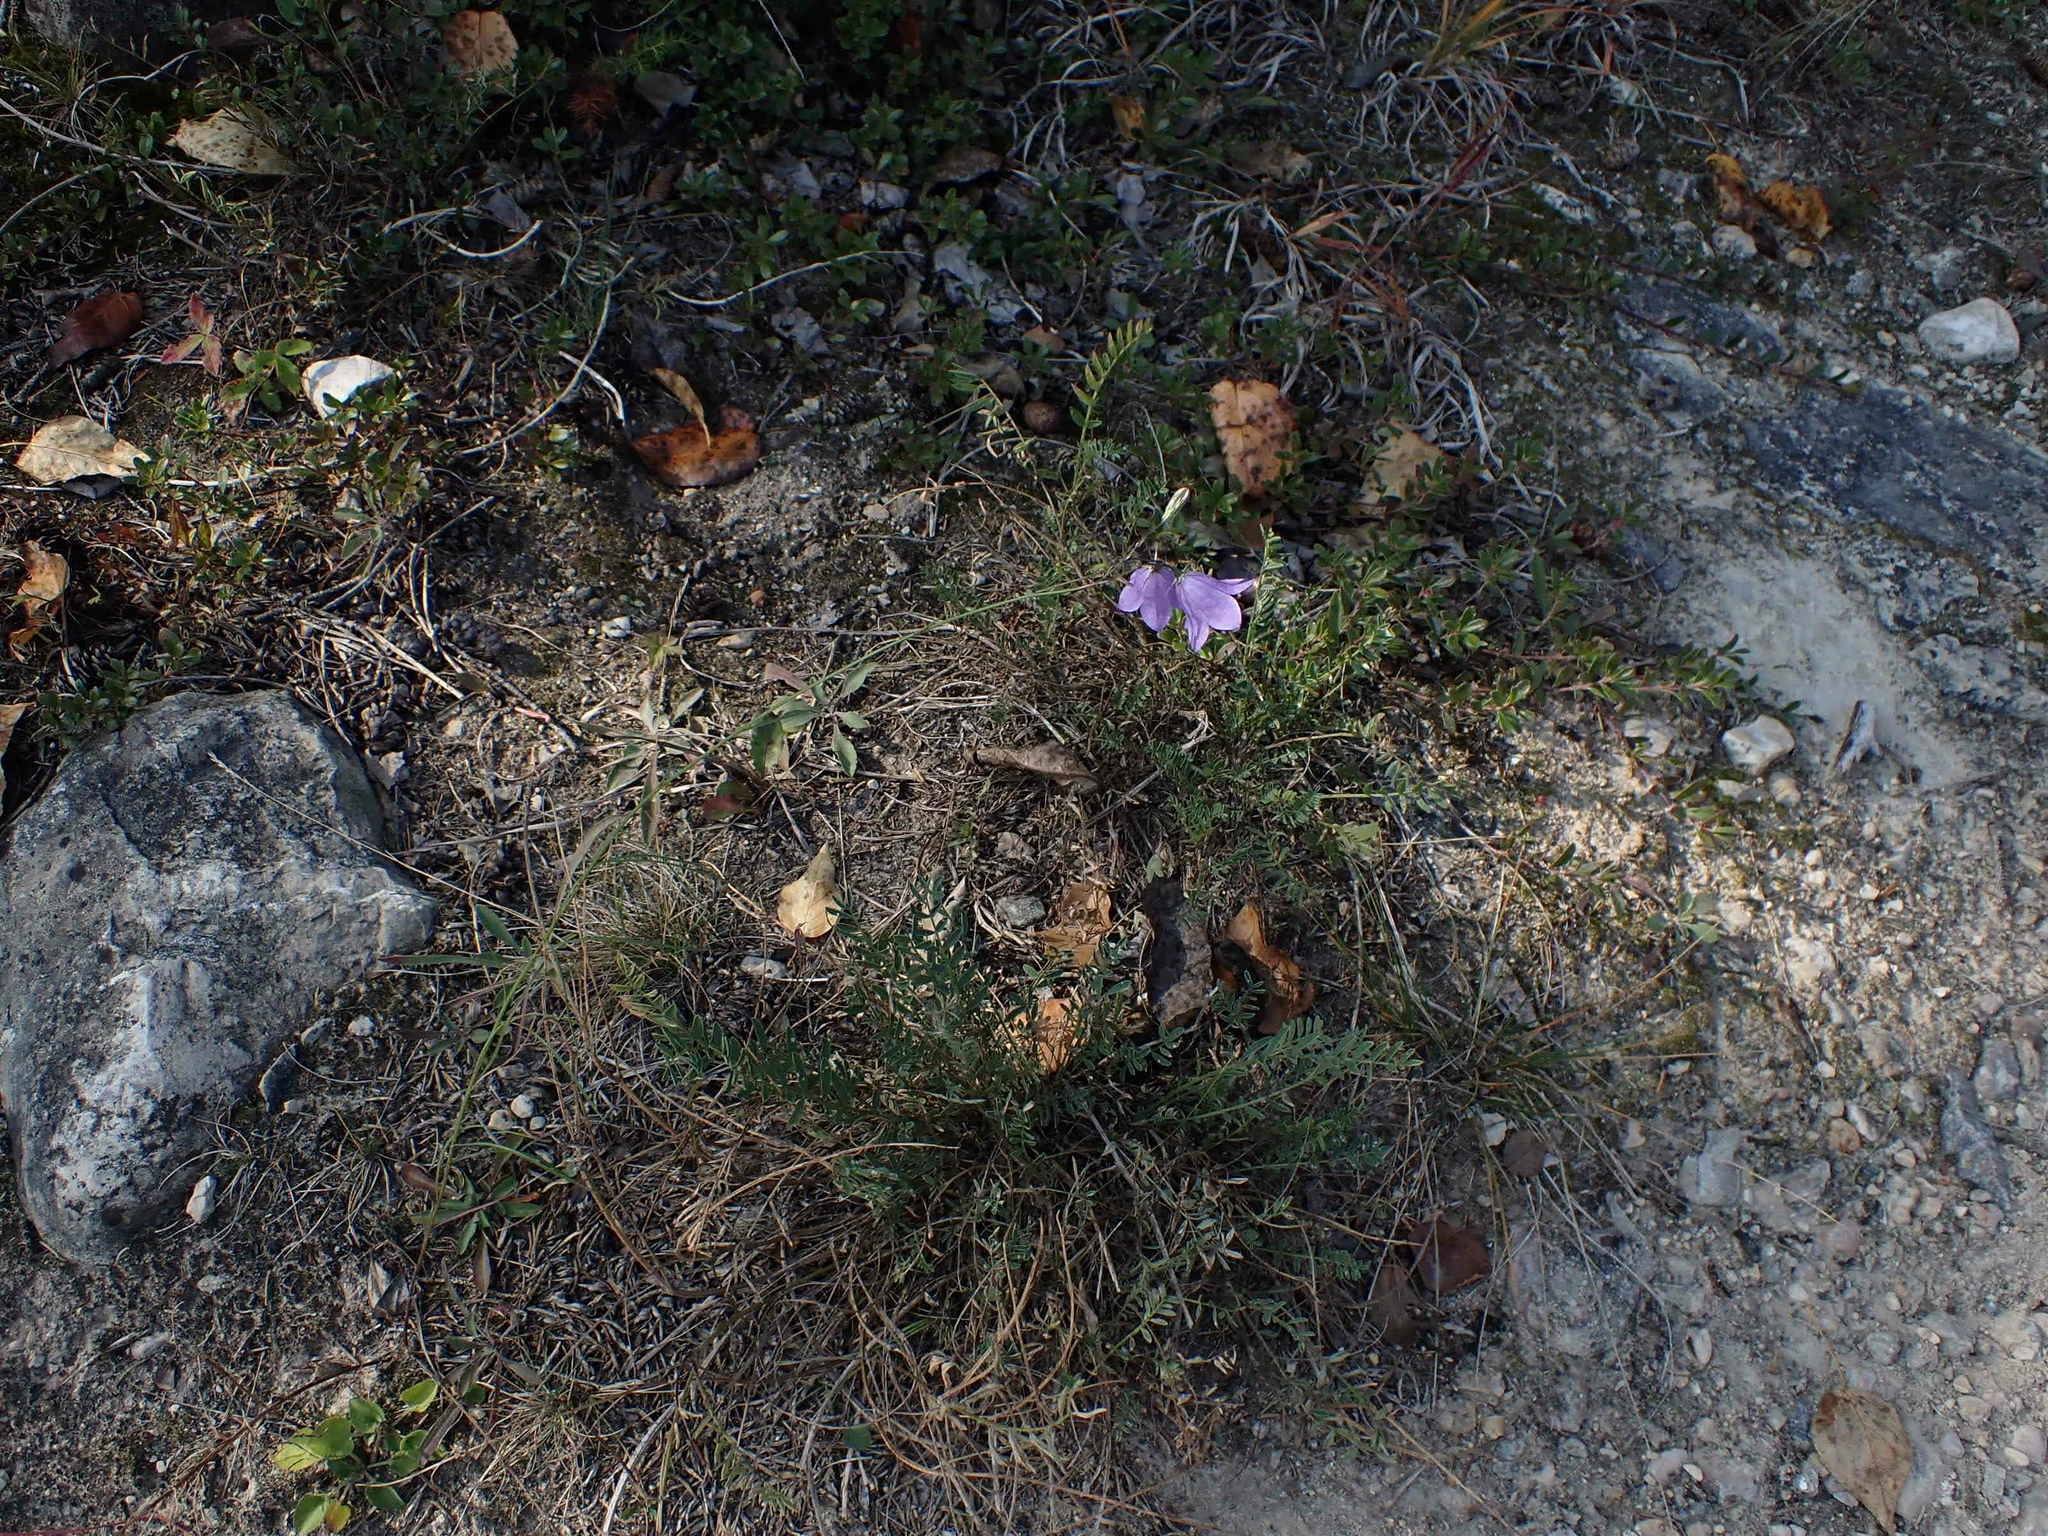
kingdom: Plantae
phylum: Tracheophyta
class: Magnoliopsida
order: Asterales
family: Campanulaceae
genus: Campanula
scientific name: Campanula petiolata
